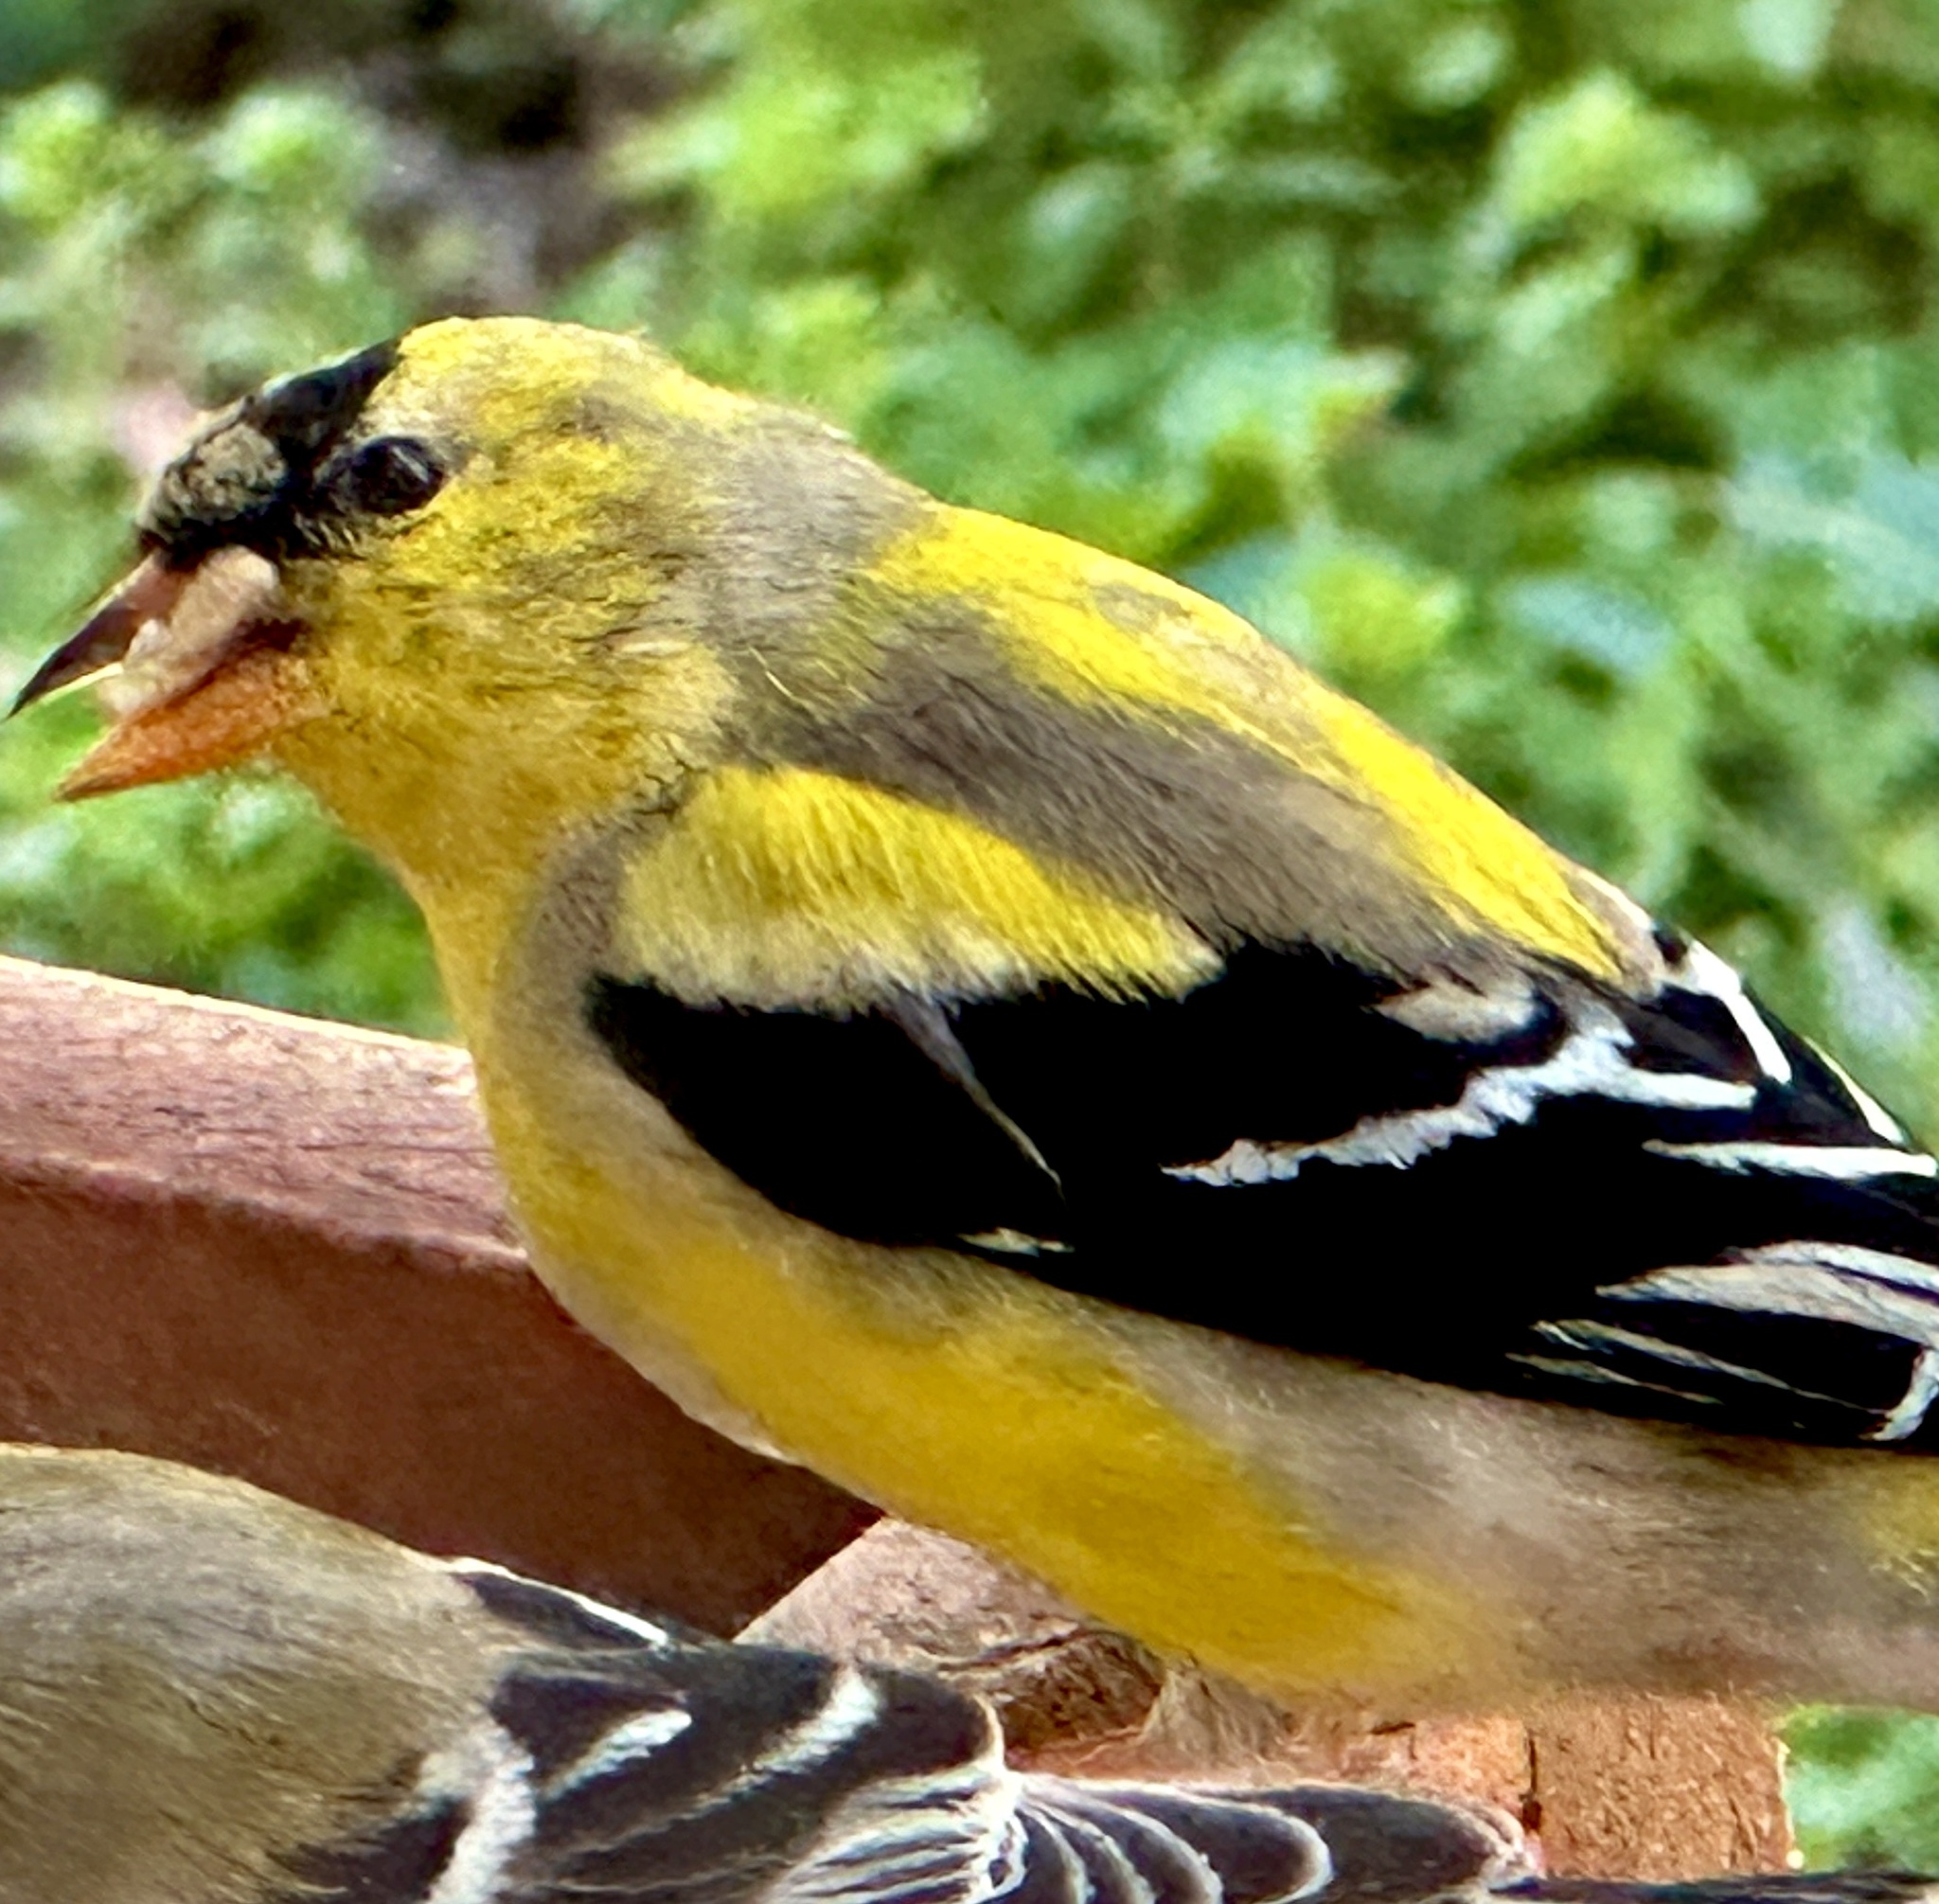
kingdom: Animalia
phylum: Chordata
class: Aves
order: Passeriformes
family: Fringillidae
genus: Spinus
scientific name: Spinus tristis
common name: American goldfinch
